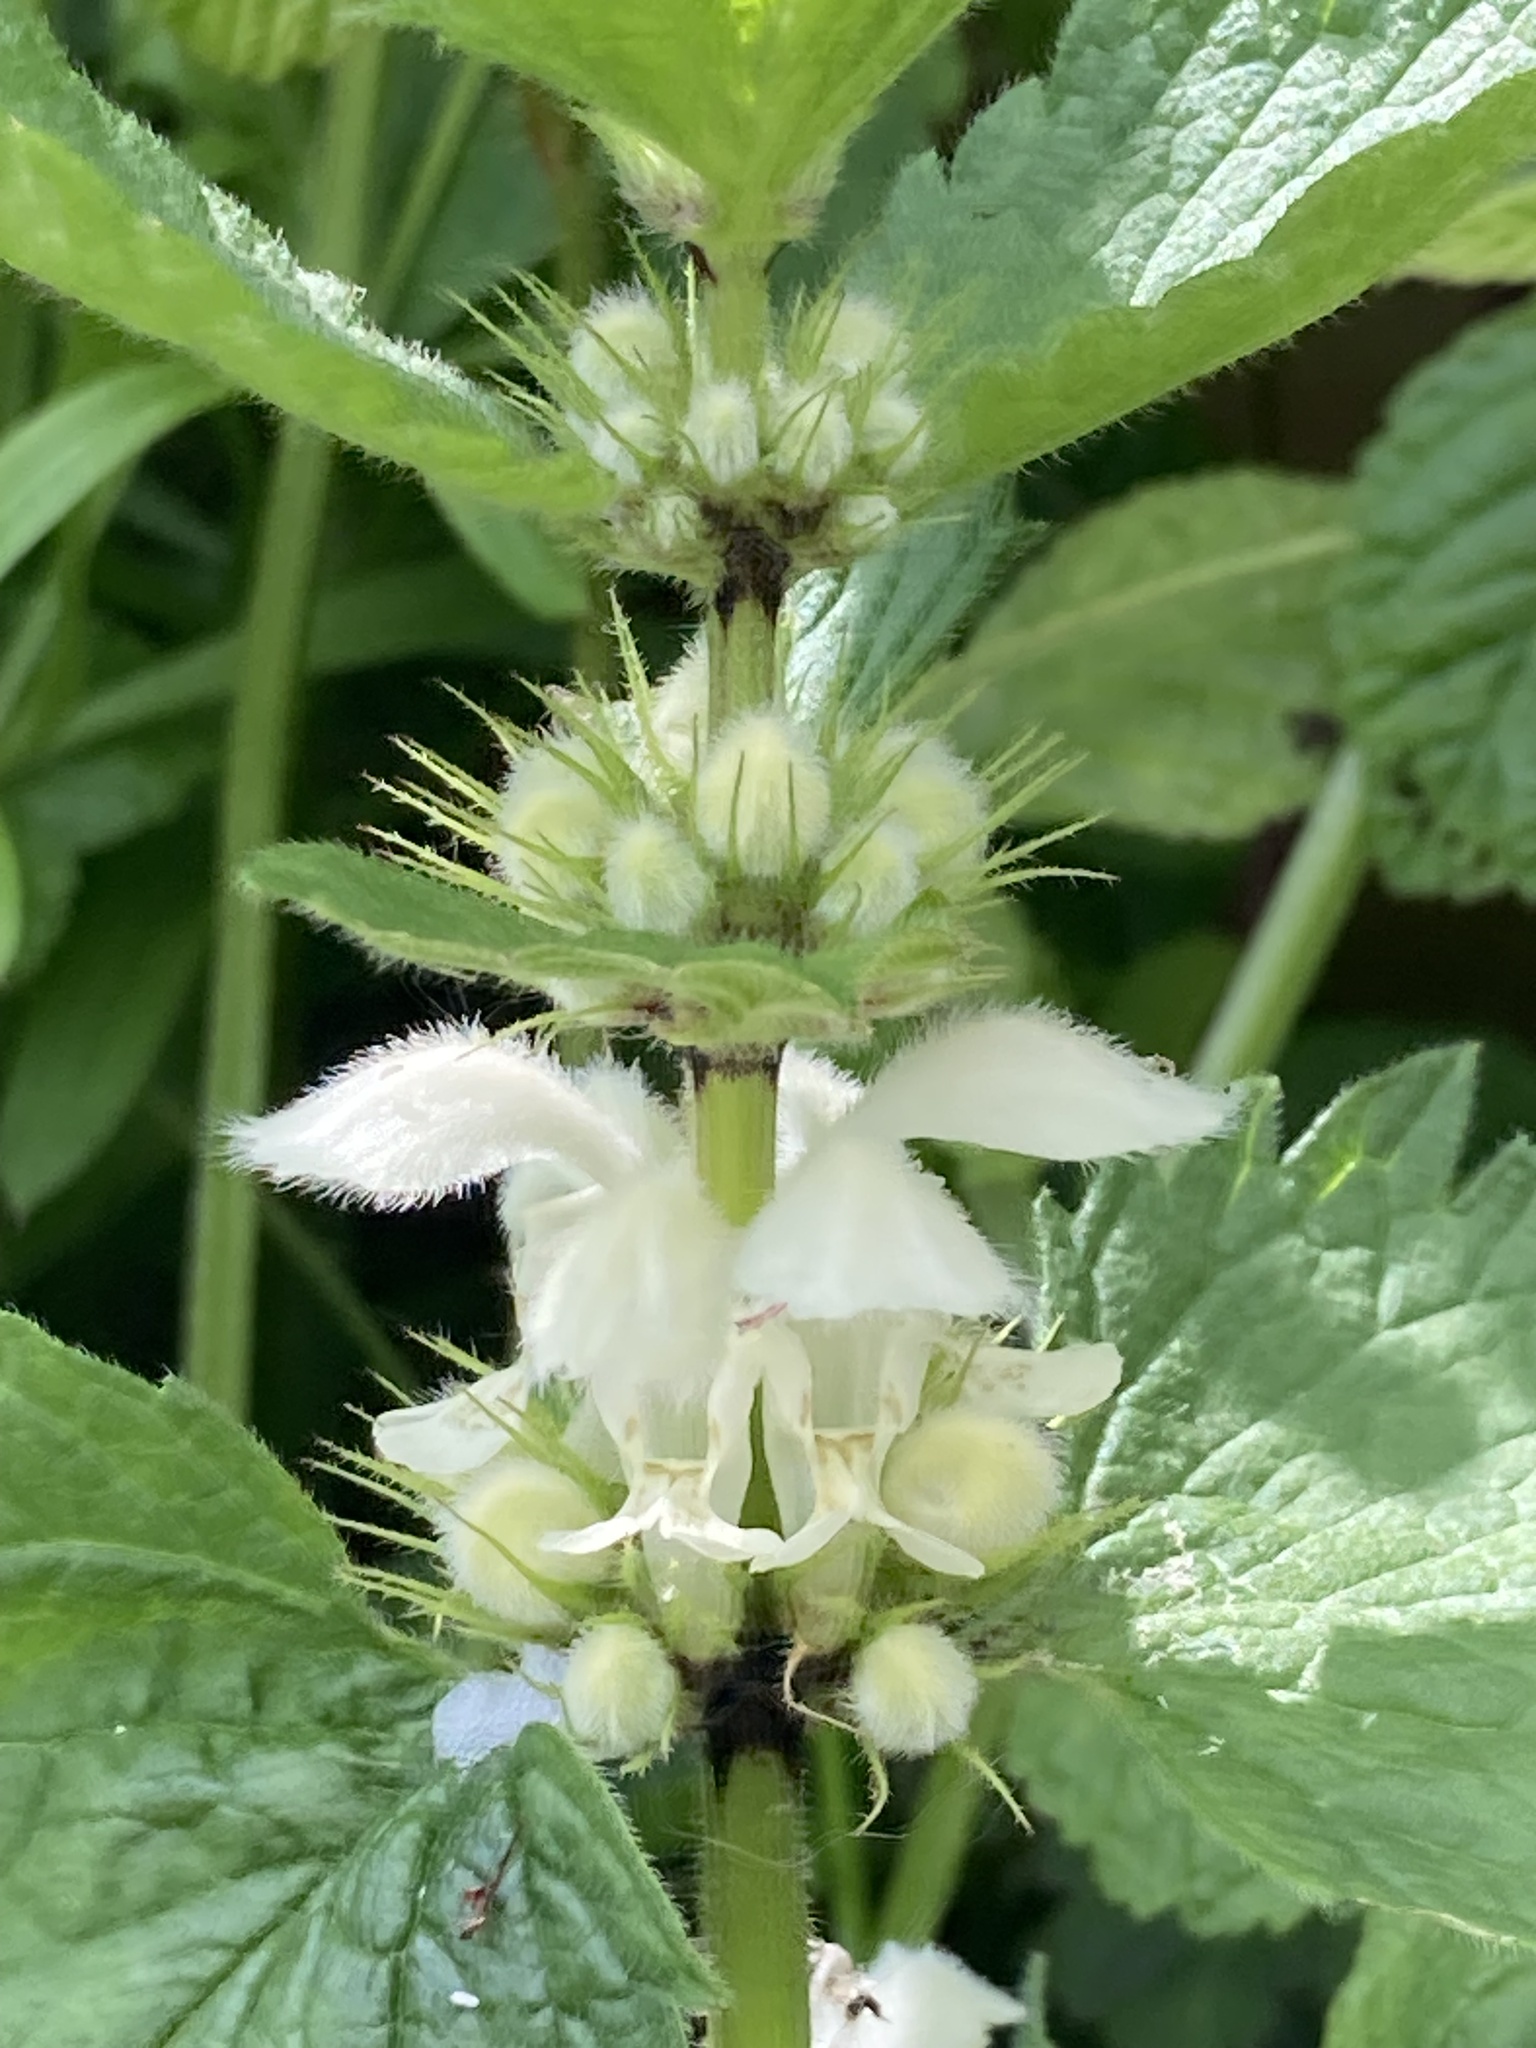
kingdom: Plantae
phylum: Tracheophyta
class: Magnoliopsida
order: Lamiales
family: Lamiaceae
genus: Lamium
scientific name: Lamium album
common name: White dead-nettle
